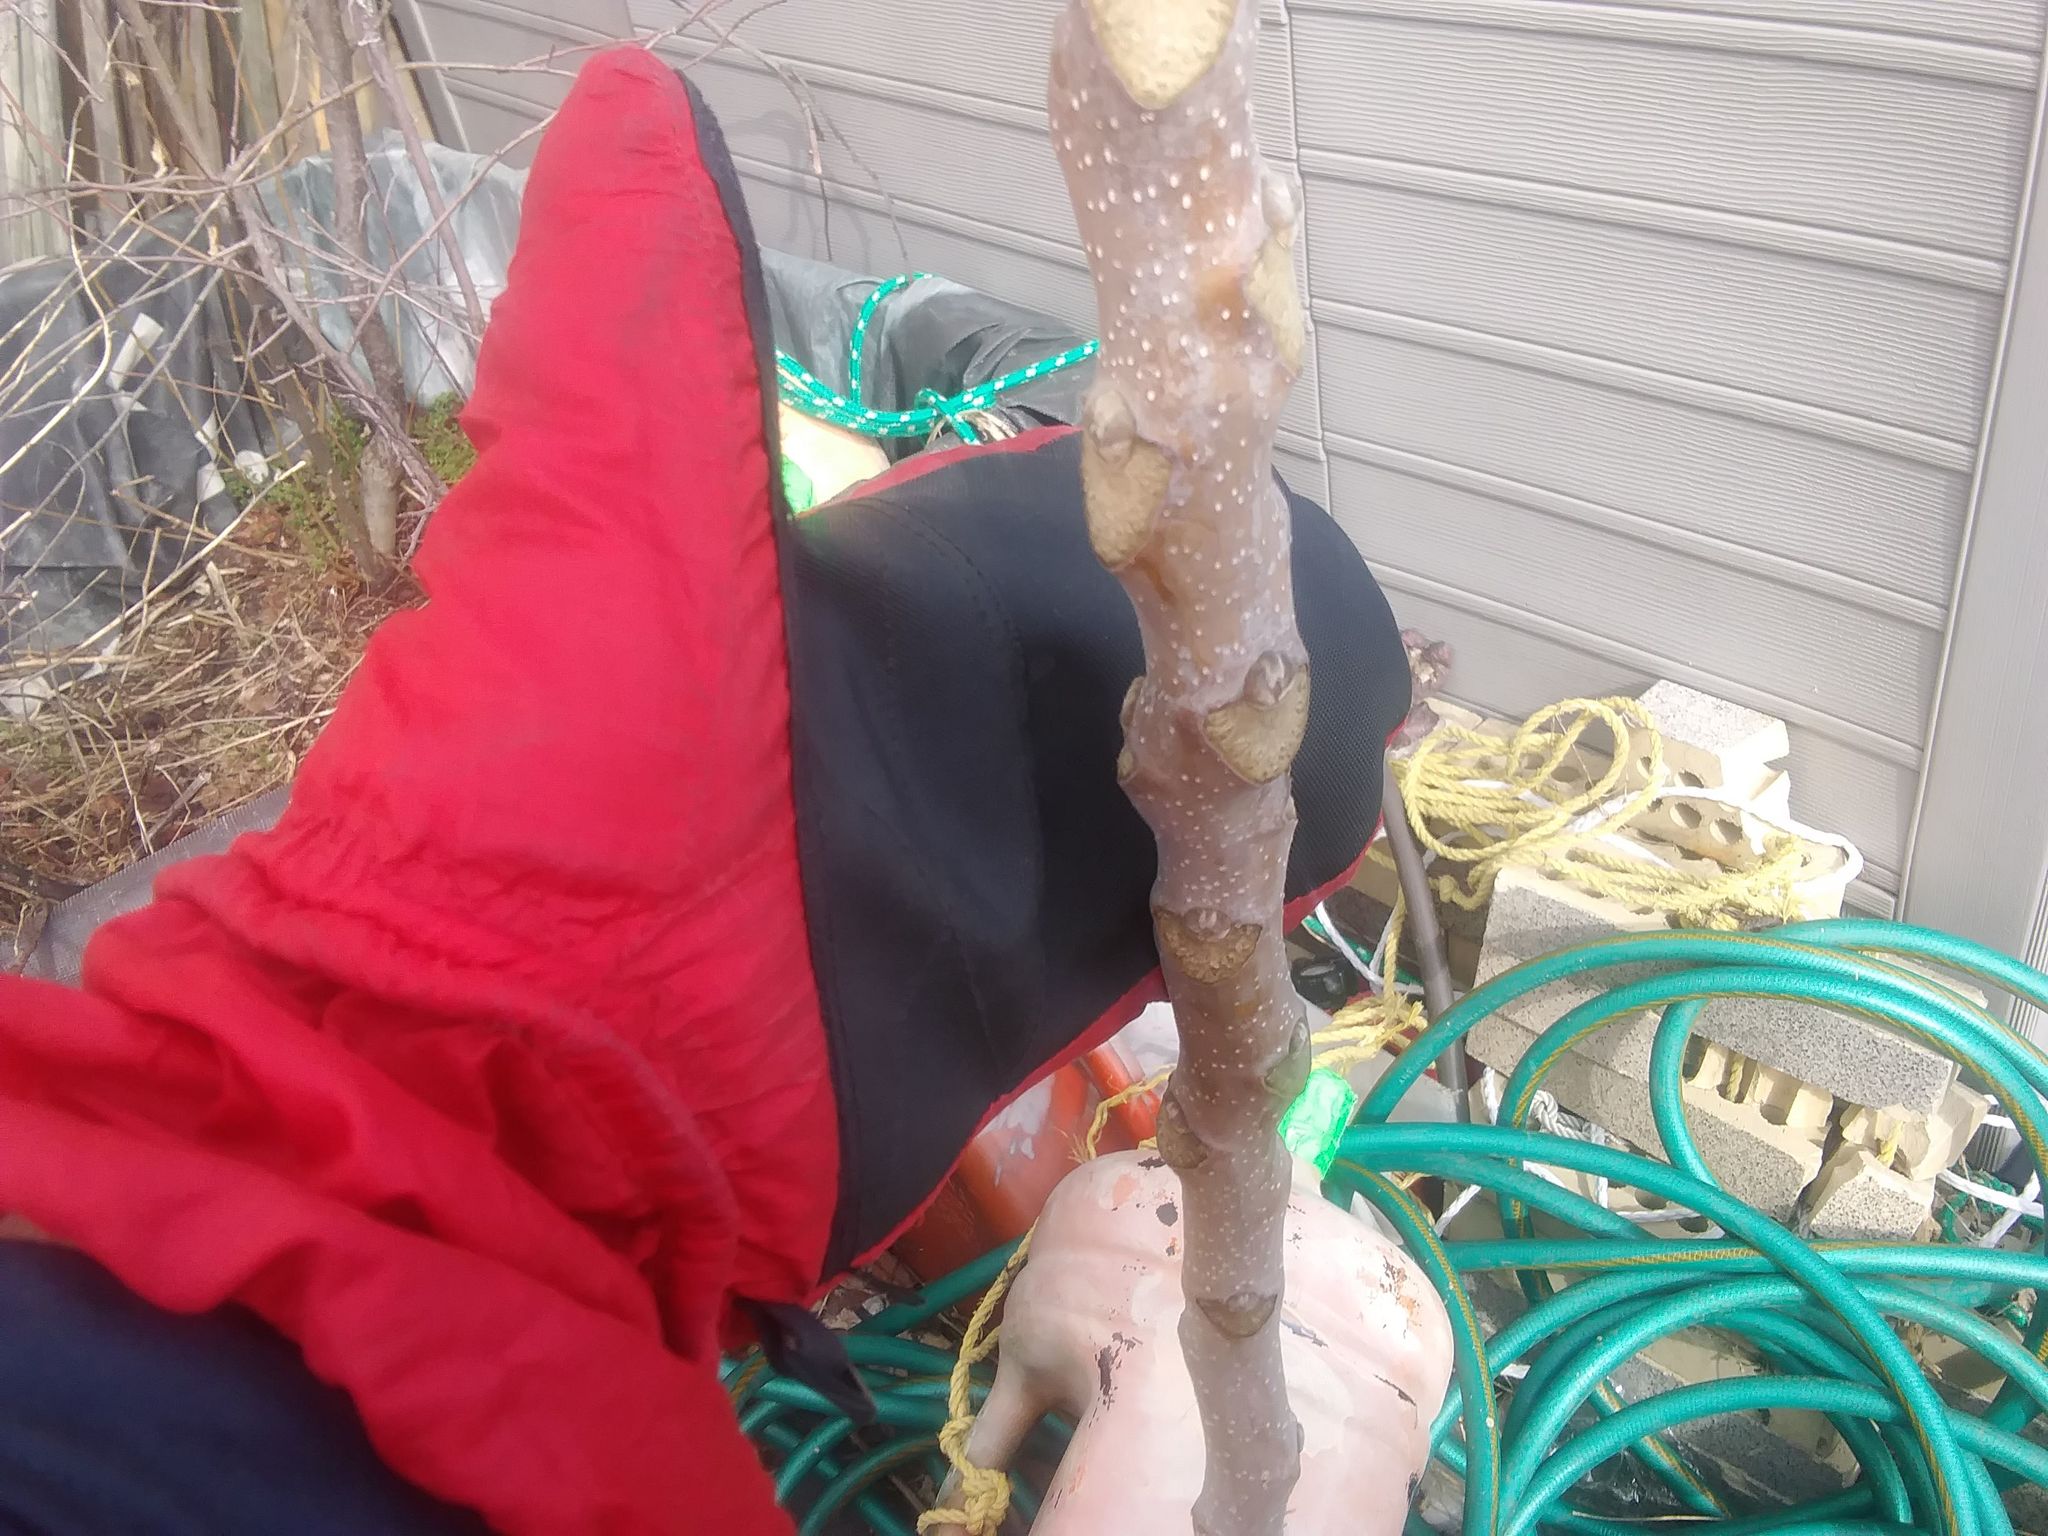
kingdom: Plantae
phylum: Tracheophyta
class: Magnoliopsida
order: Sapindales
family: Simaroubaceae
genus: Ailanthus
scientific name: Ailanthus altissima
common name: Tree-of-heaven
